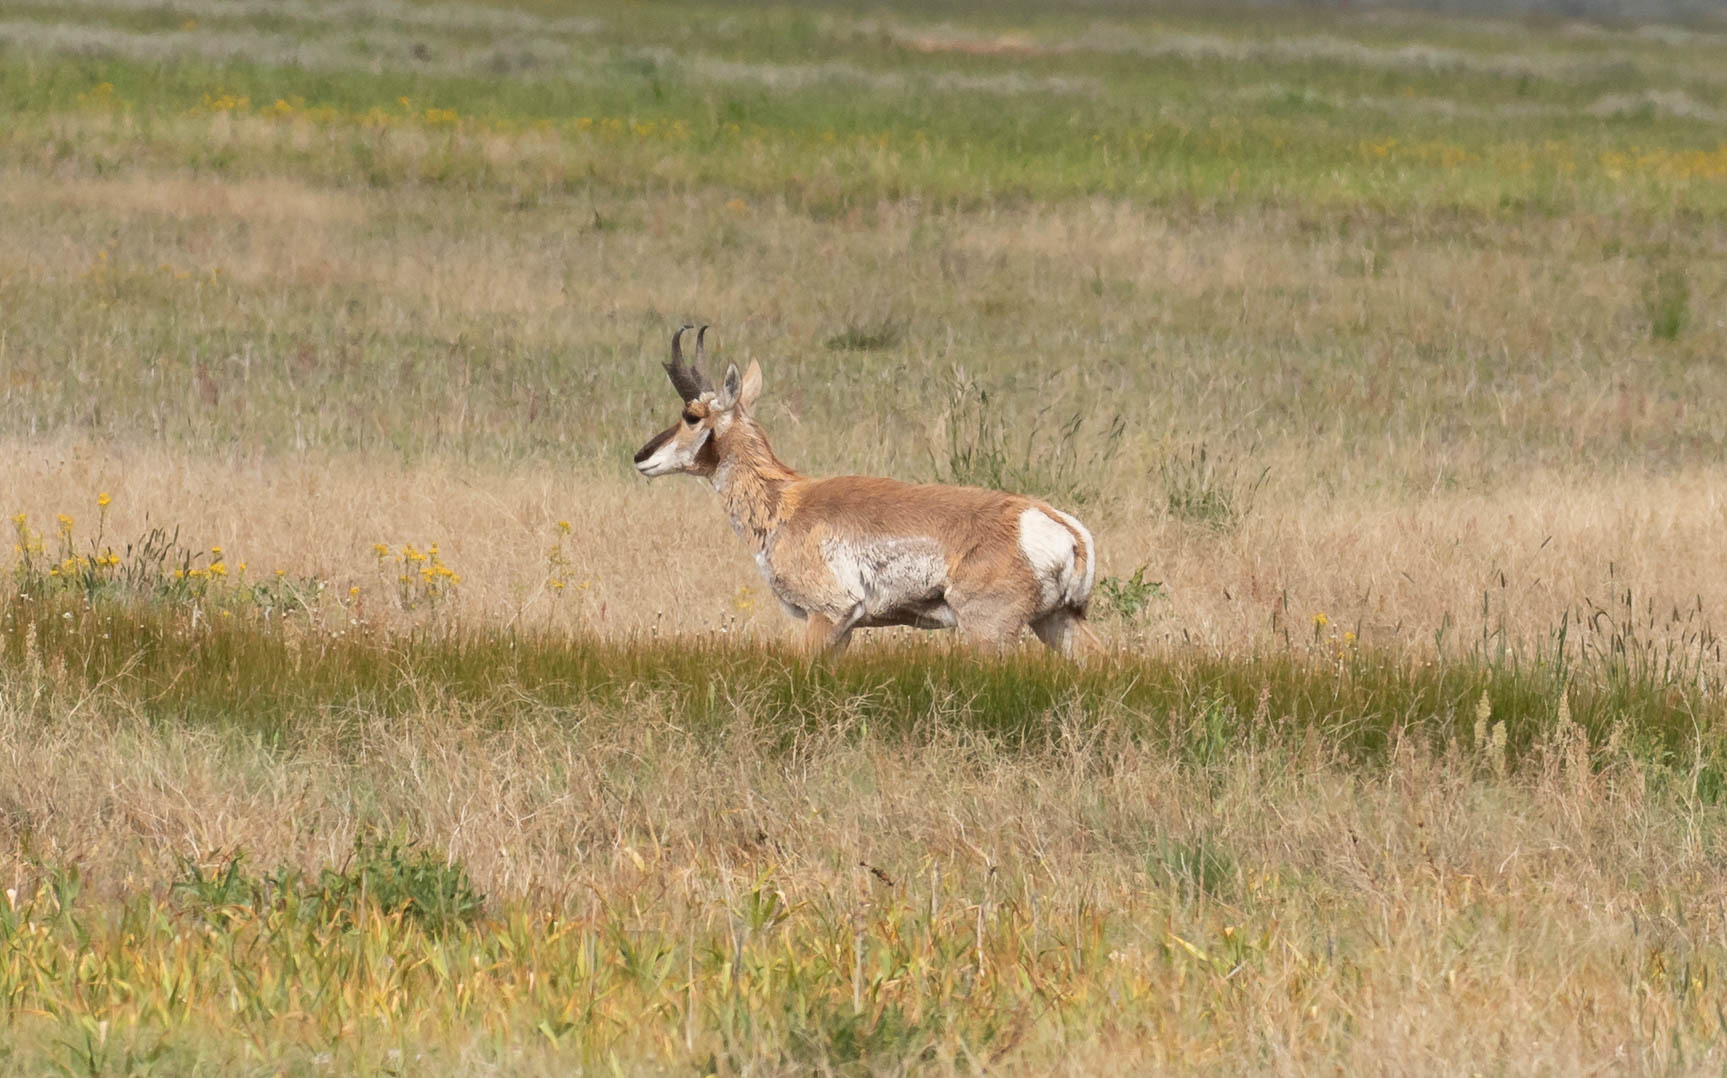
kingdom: Animalia
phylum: Chordata
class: Mammalia
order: Artiodactyla
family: Antilocapridae
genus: Antilocapra
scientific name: Antilocapra americana
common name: Pronghorn
